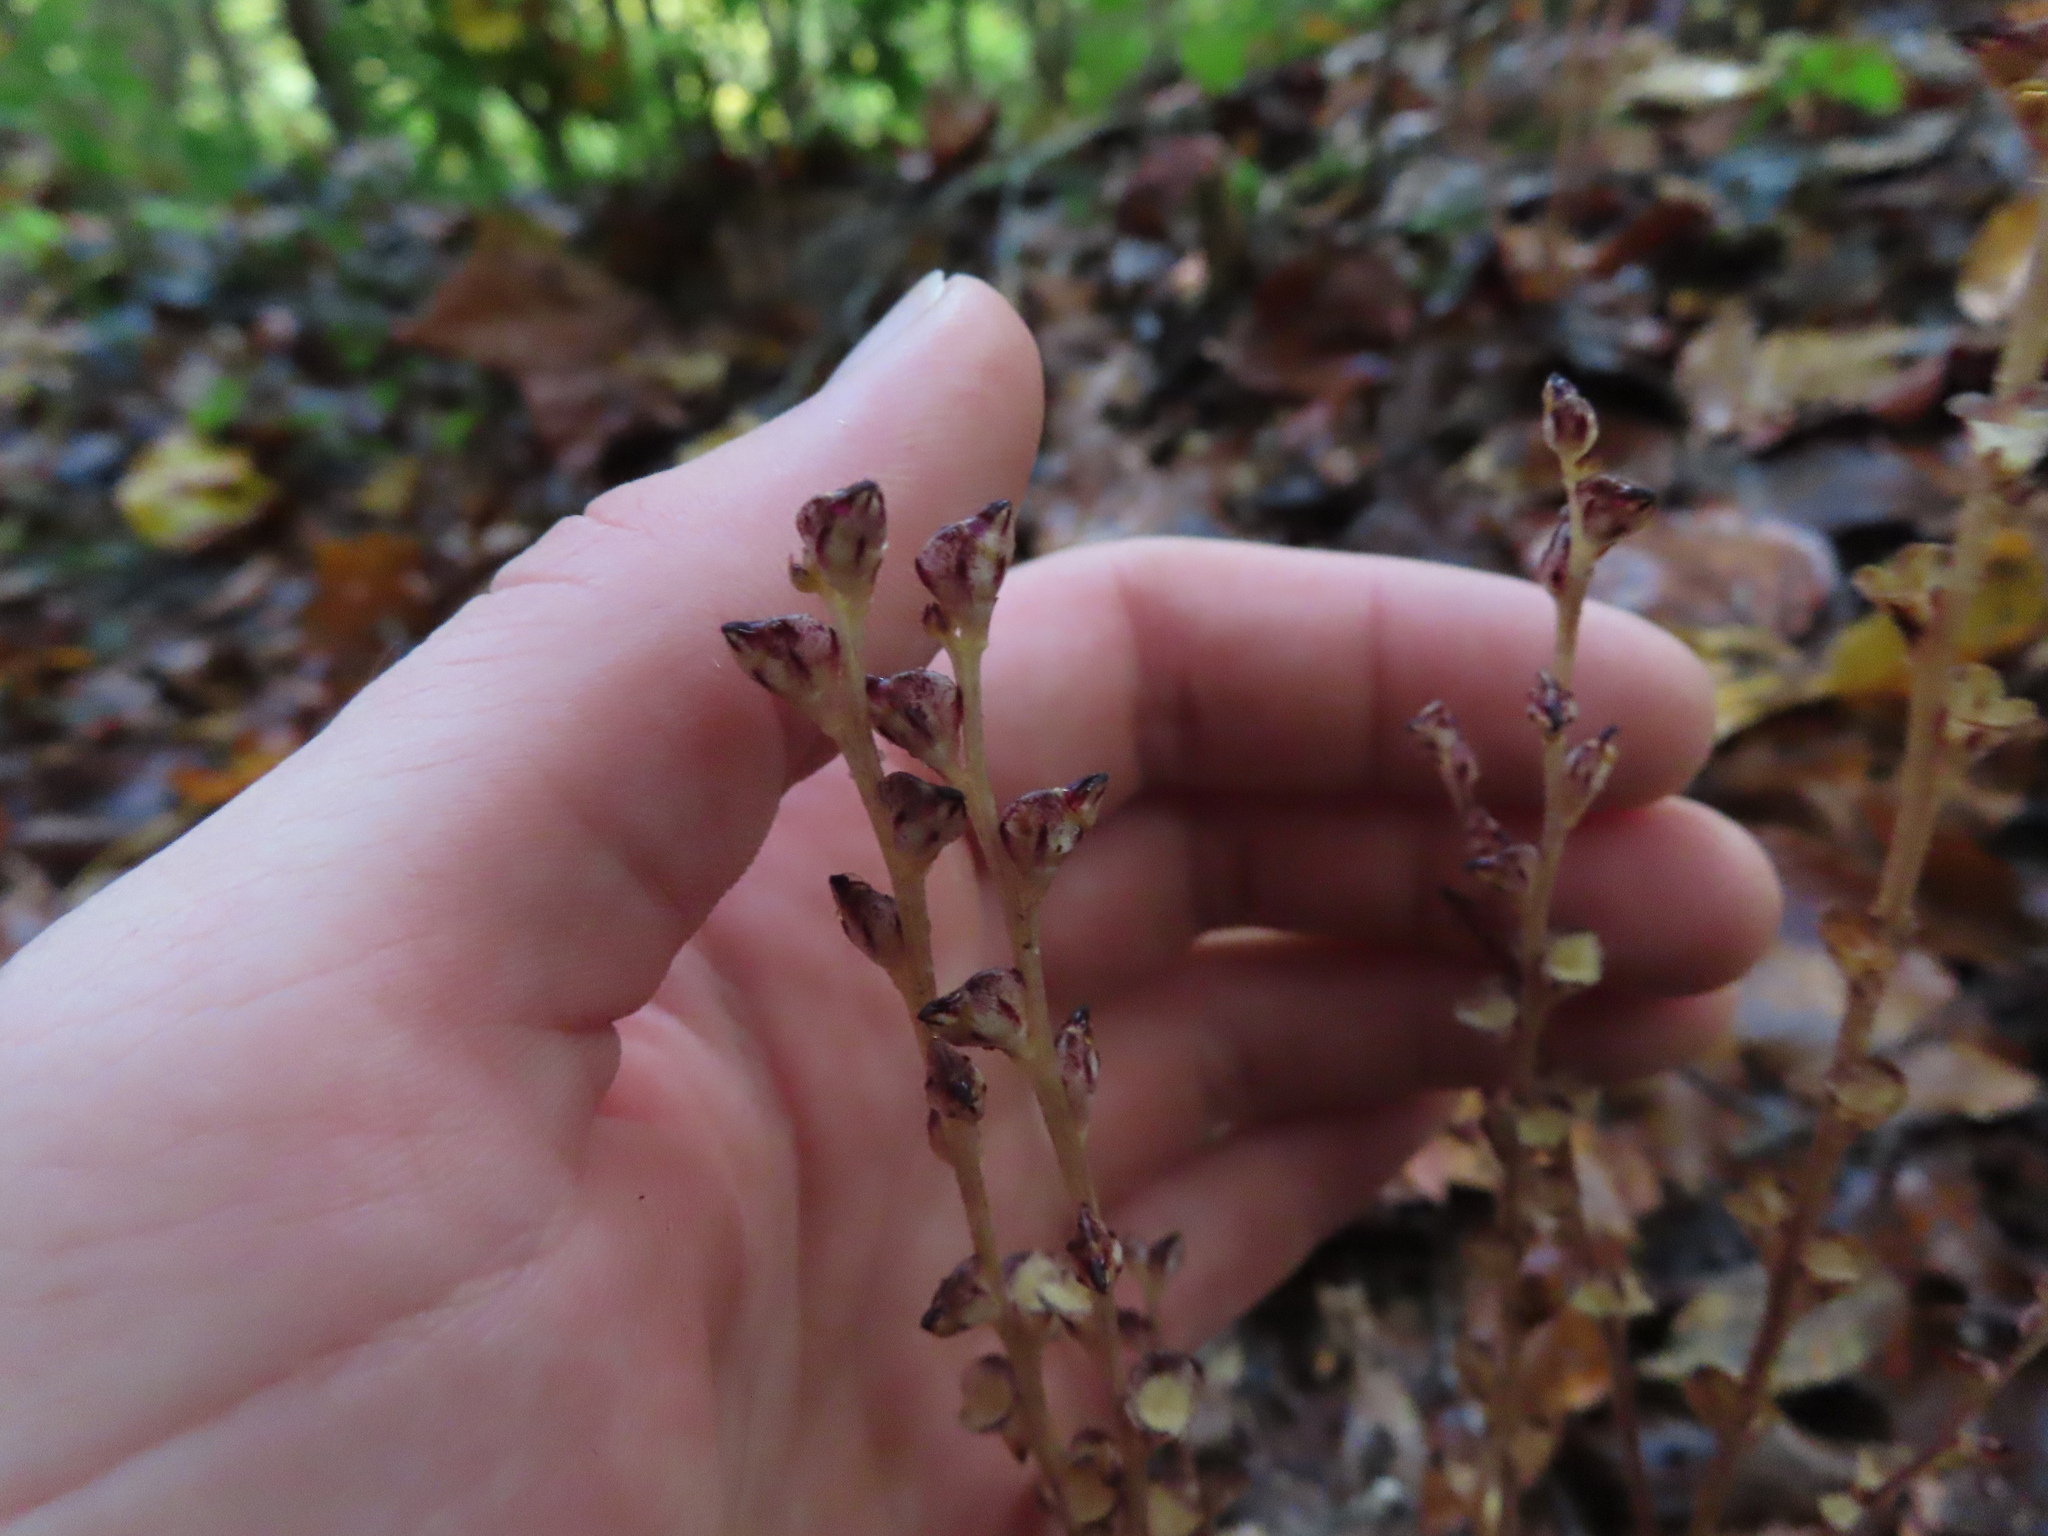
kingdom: Plantae
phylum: Tracheophyta
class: Magnoliopsida
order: Lamiales
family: Orobanchaceae
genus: Epifagus
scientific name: Epifagus virginiana
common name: Beechdrops
